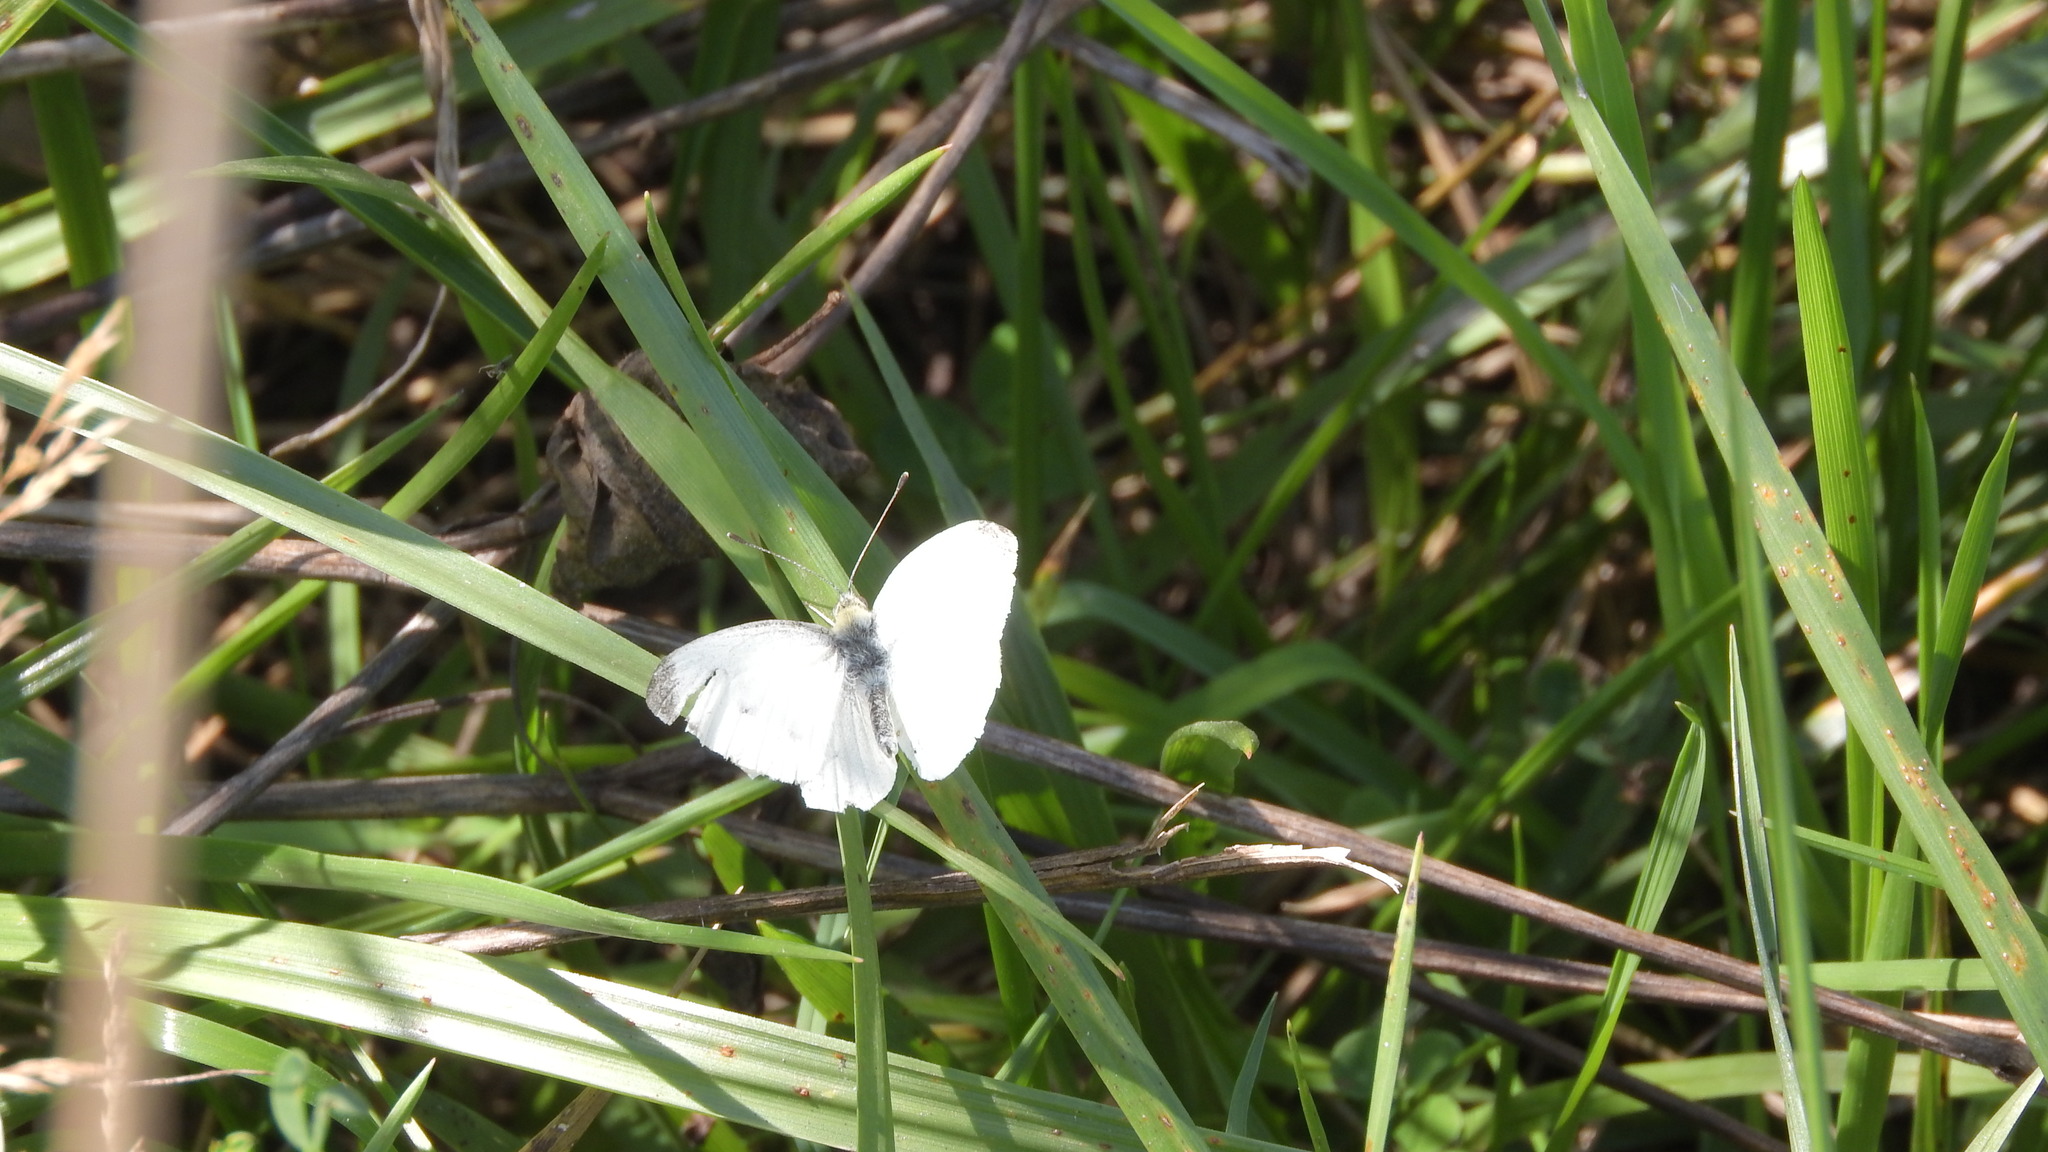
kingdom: Animalia
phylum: Arthropoda
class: Insecta
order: Lepidoptera
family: Pieridae
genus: Pieris
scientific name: Pieris rapae
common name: Small white
